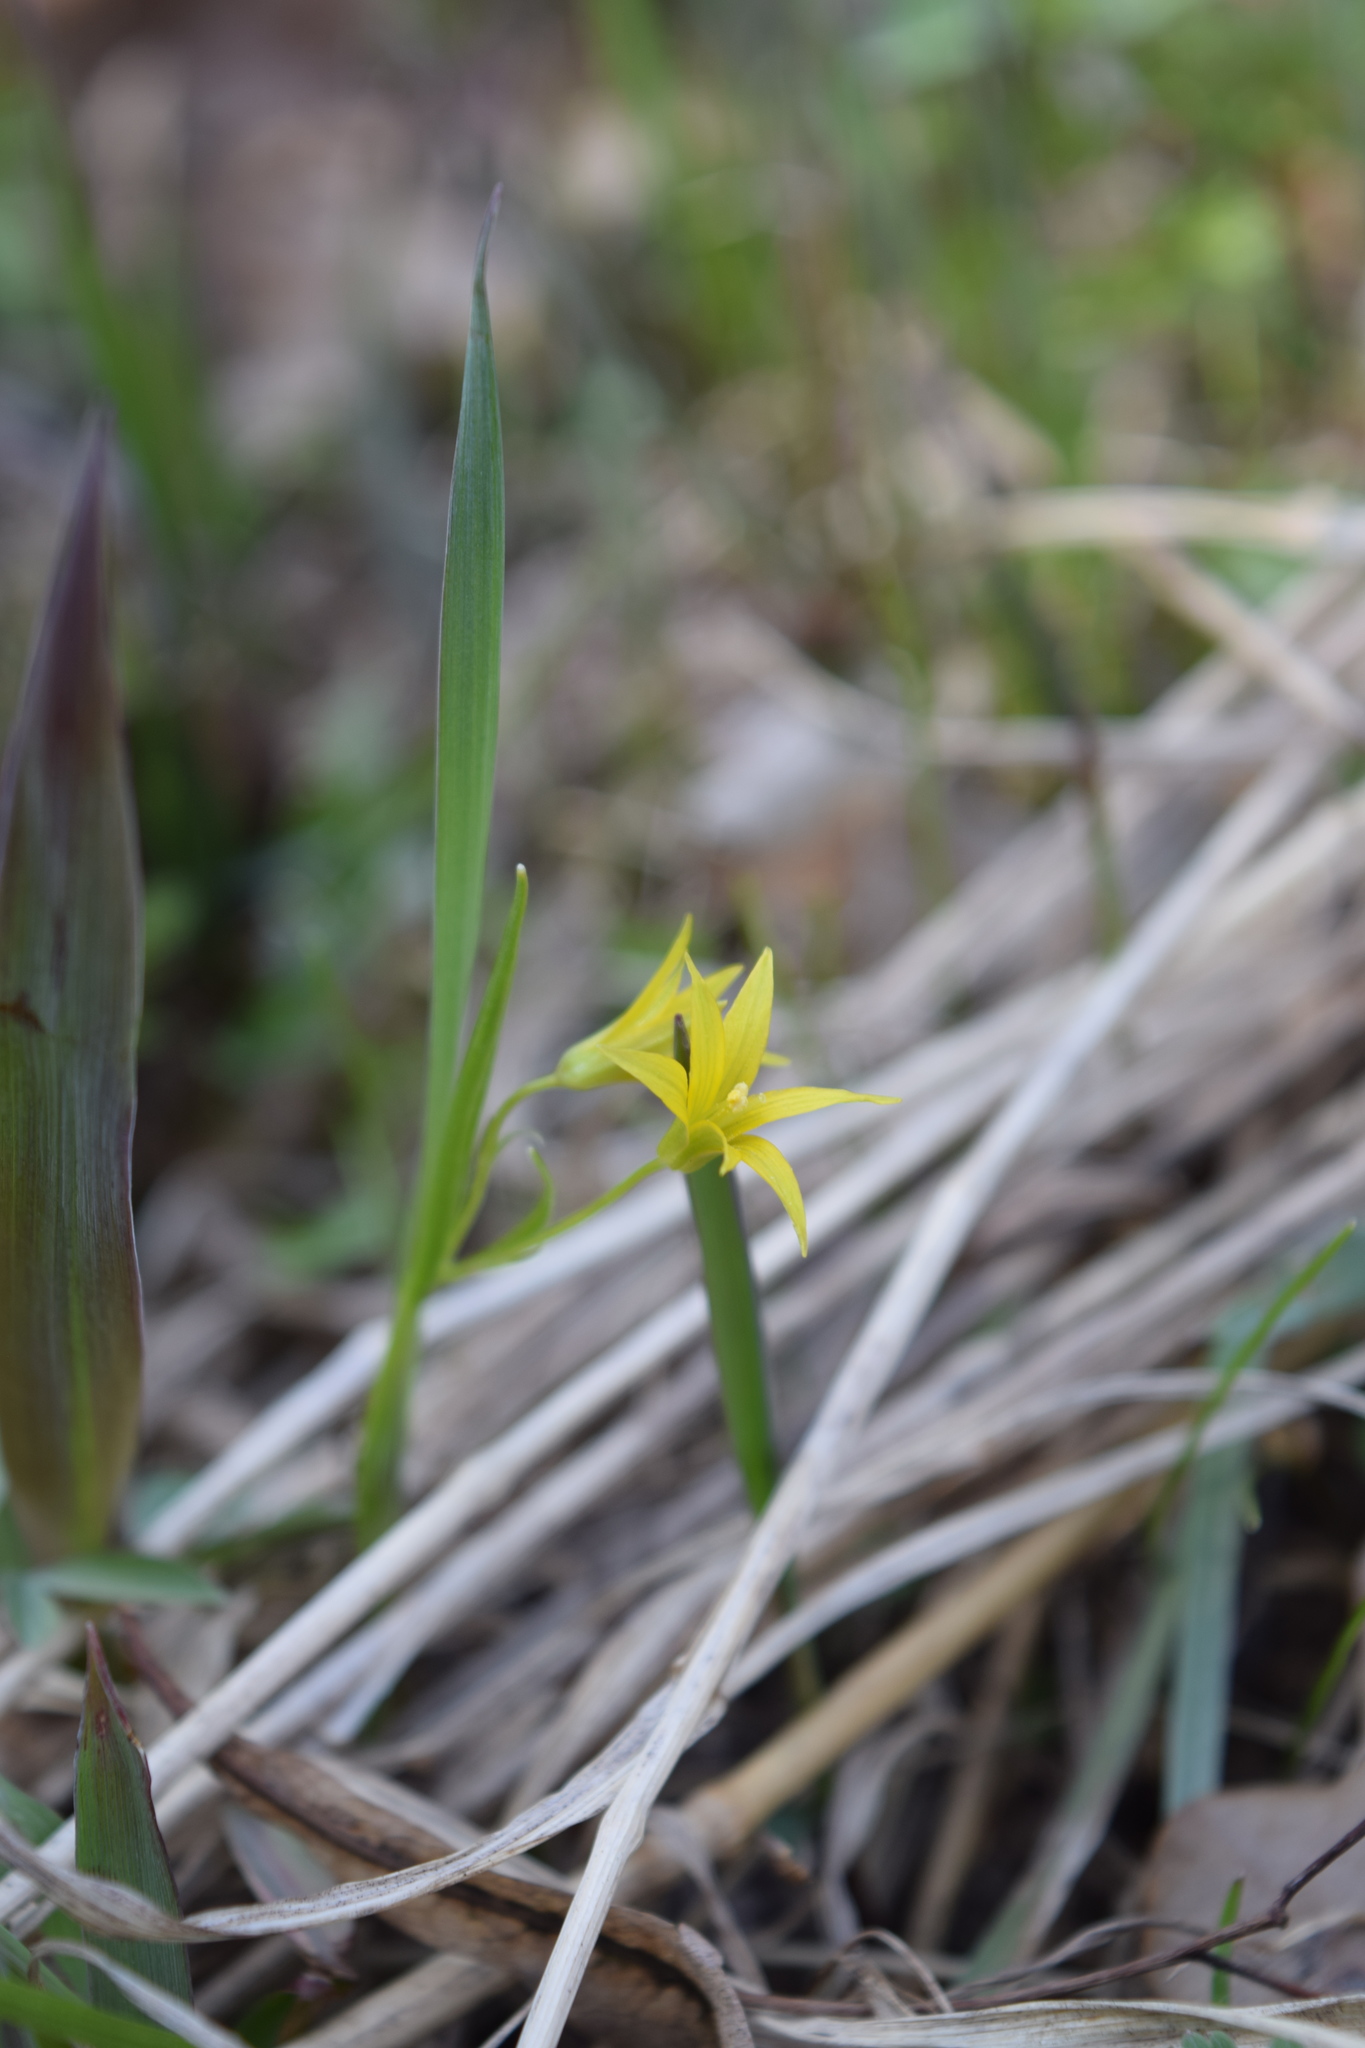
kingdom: Plantae
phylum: Tracheophyta
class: Liliopsida
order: Liliales
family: Liliaceae
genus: Gagea
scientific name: Gagea minima
